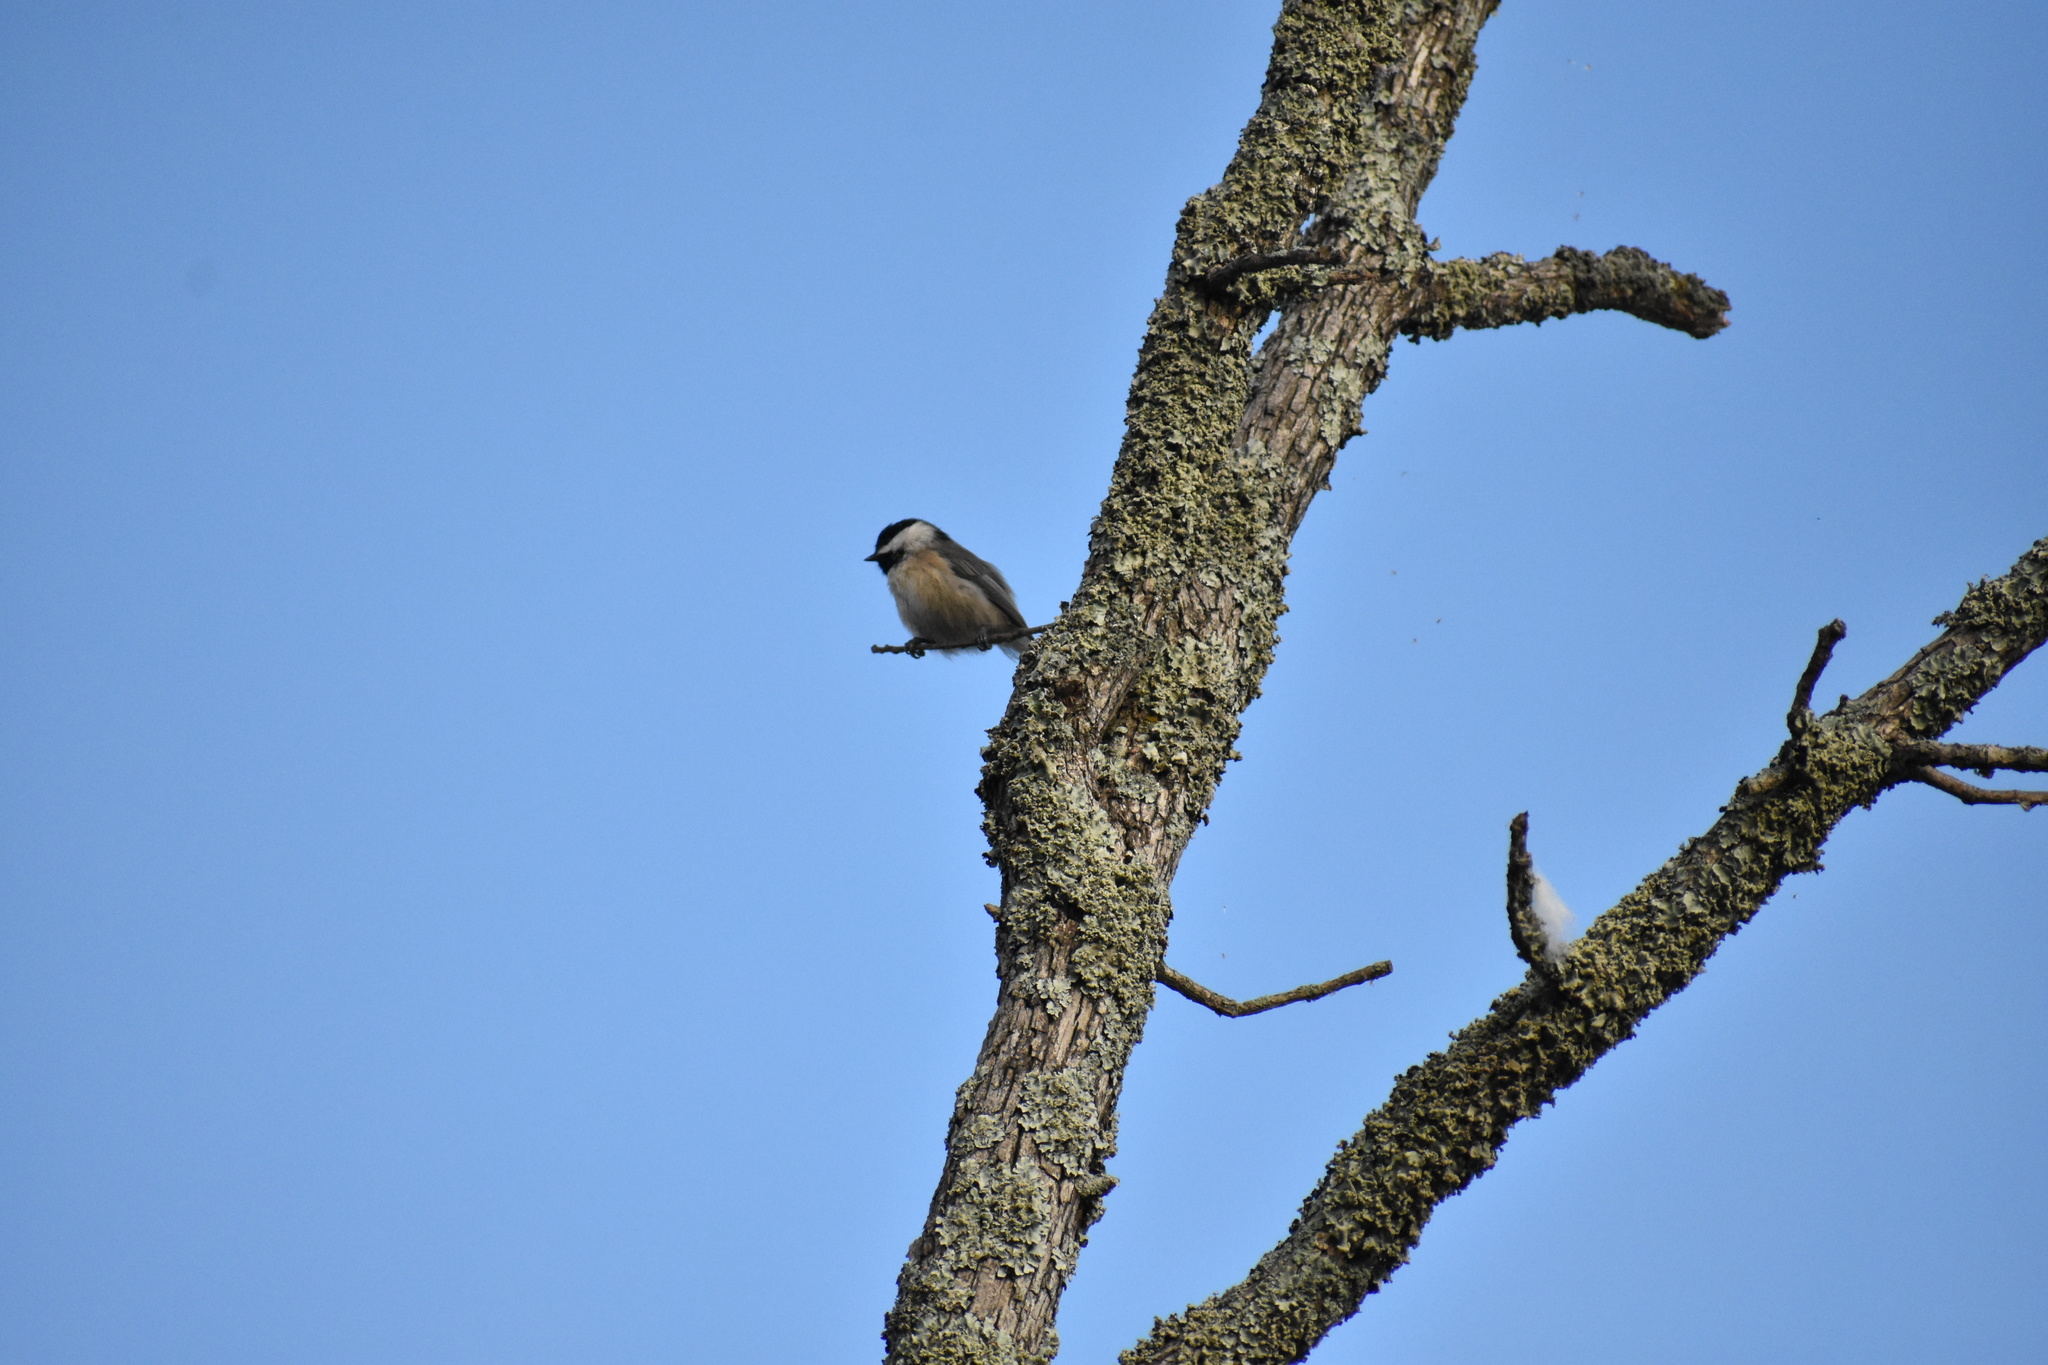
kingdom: Animalia
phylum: Chordata
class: Aves
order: Passeriformes
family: Paridae
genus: Poecile
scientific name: Poecile carolinensis
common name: Carolina chickadee
